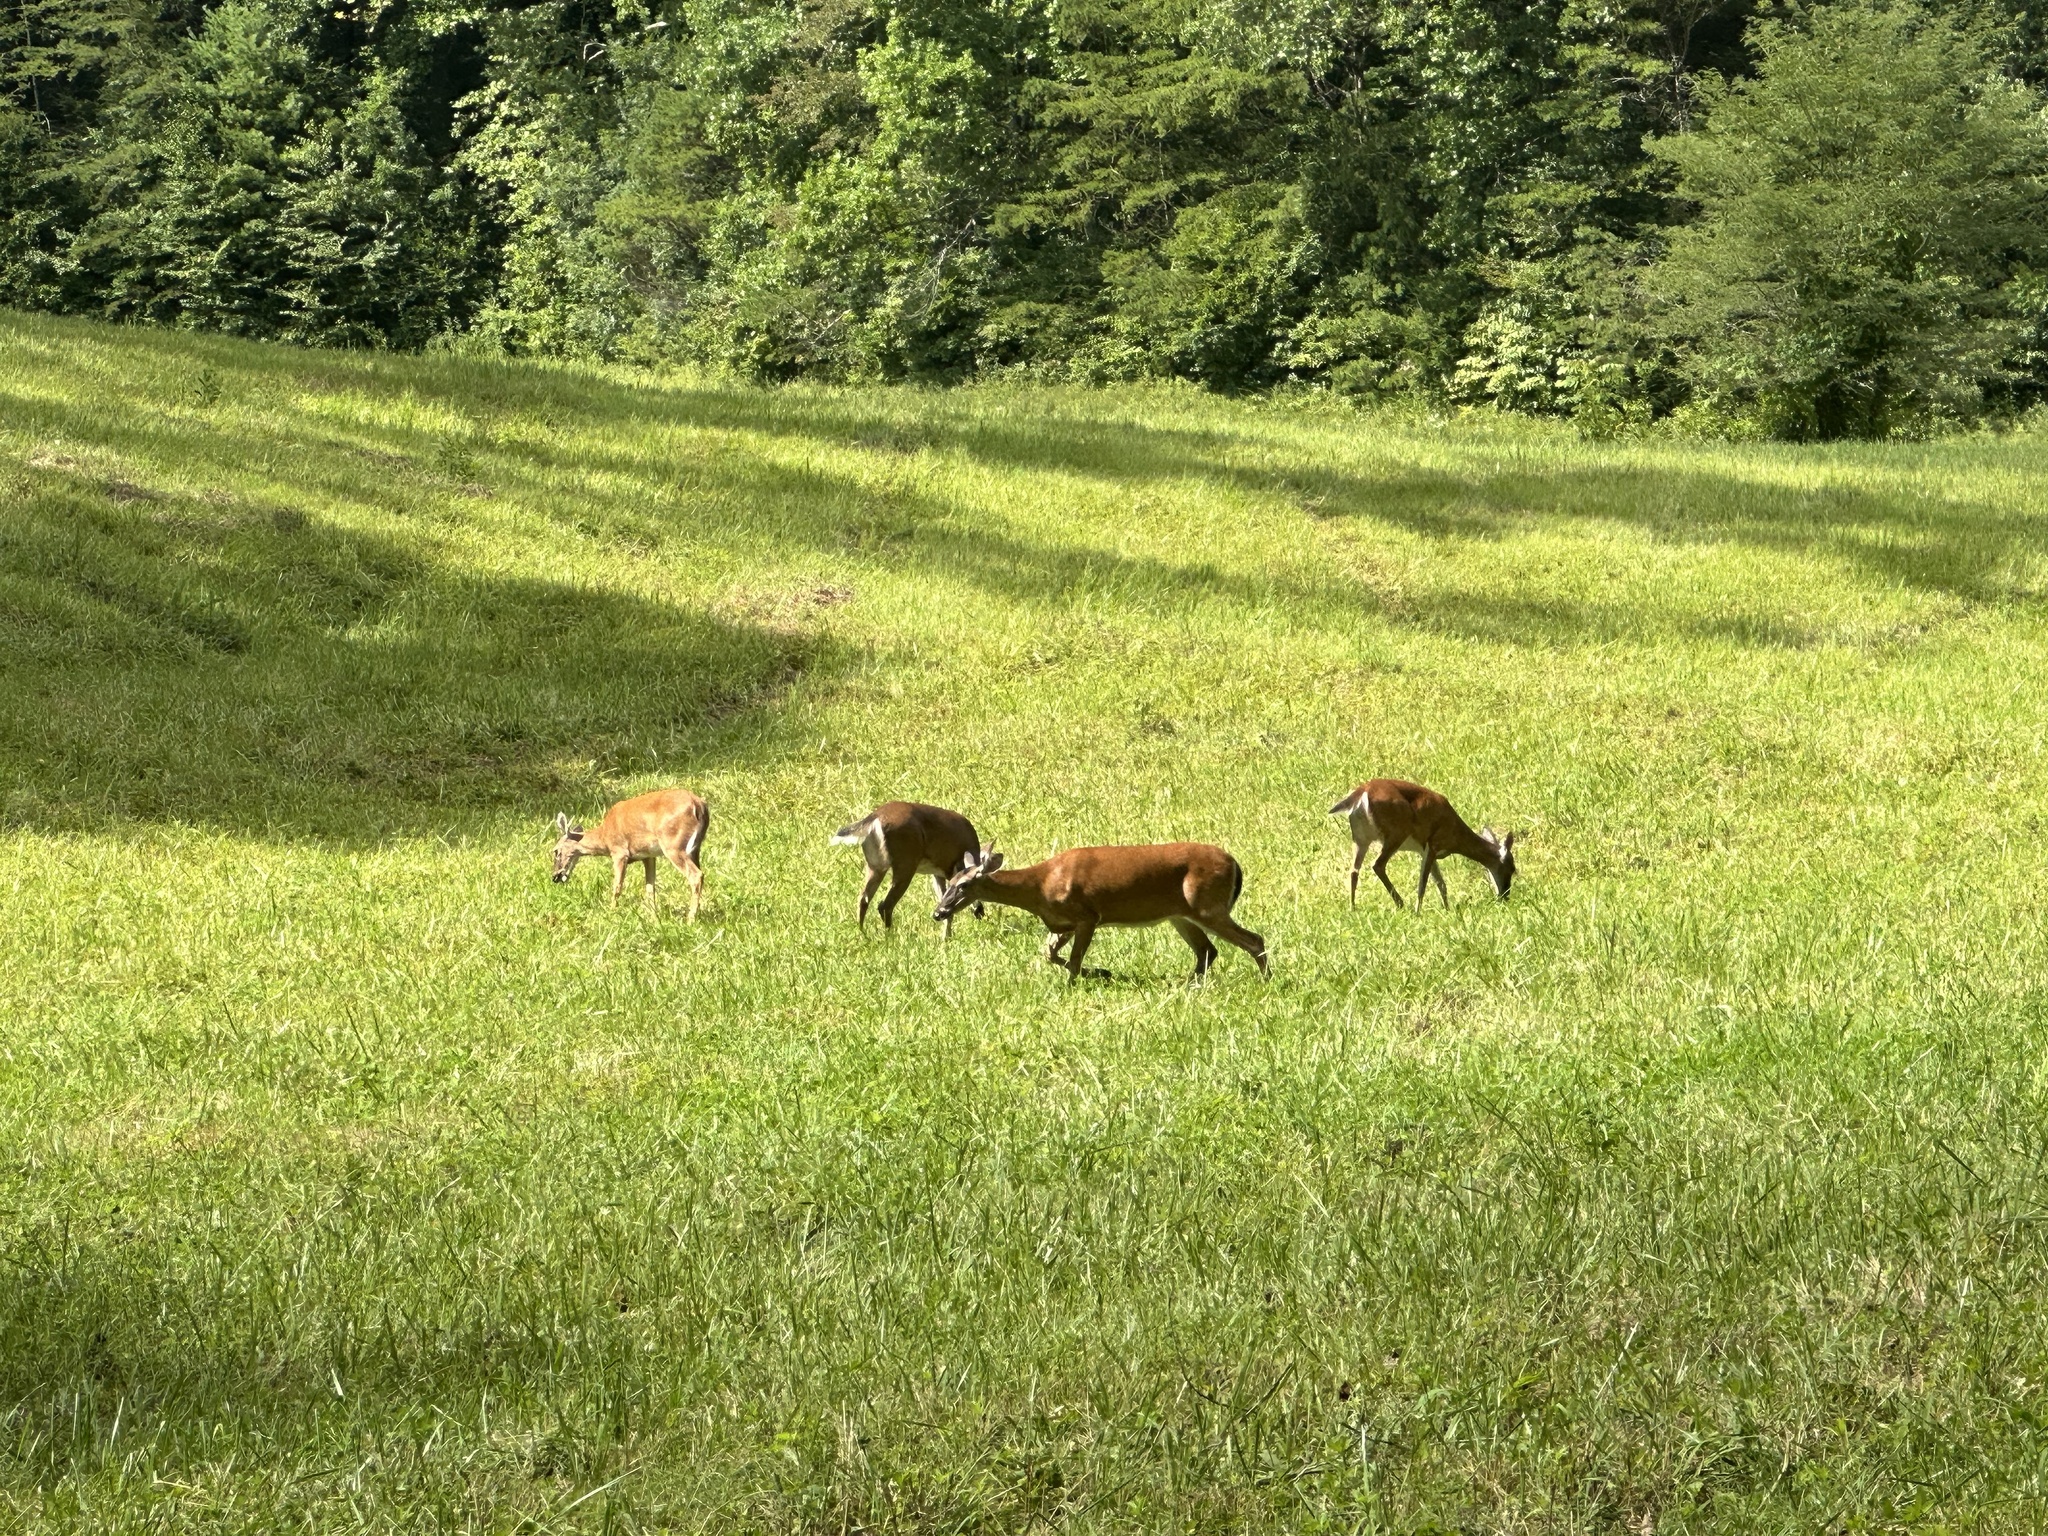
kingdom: Animalia
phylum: Chordata
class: Mammalia
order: Artiodactyla
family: Cervidae
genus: Odocoileus
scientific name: Odocoileus virginianus
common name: White-tailed deer
